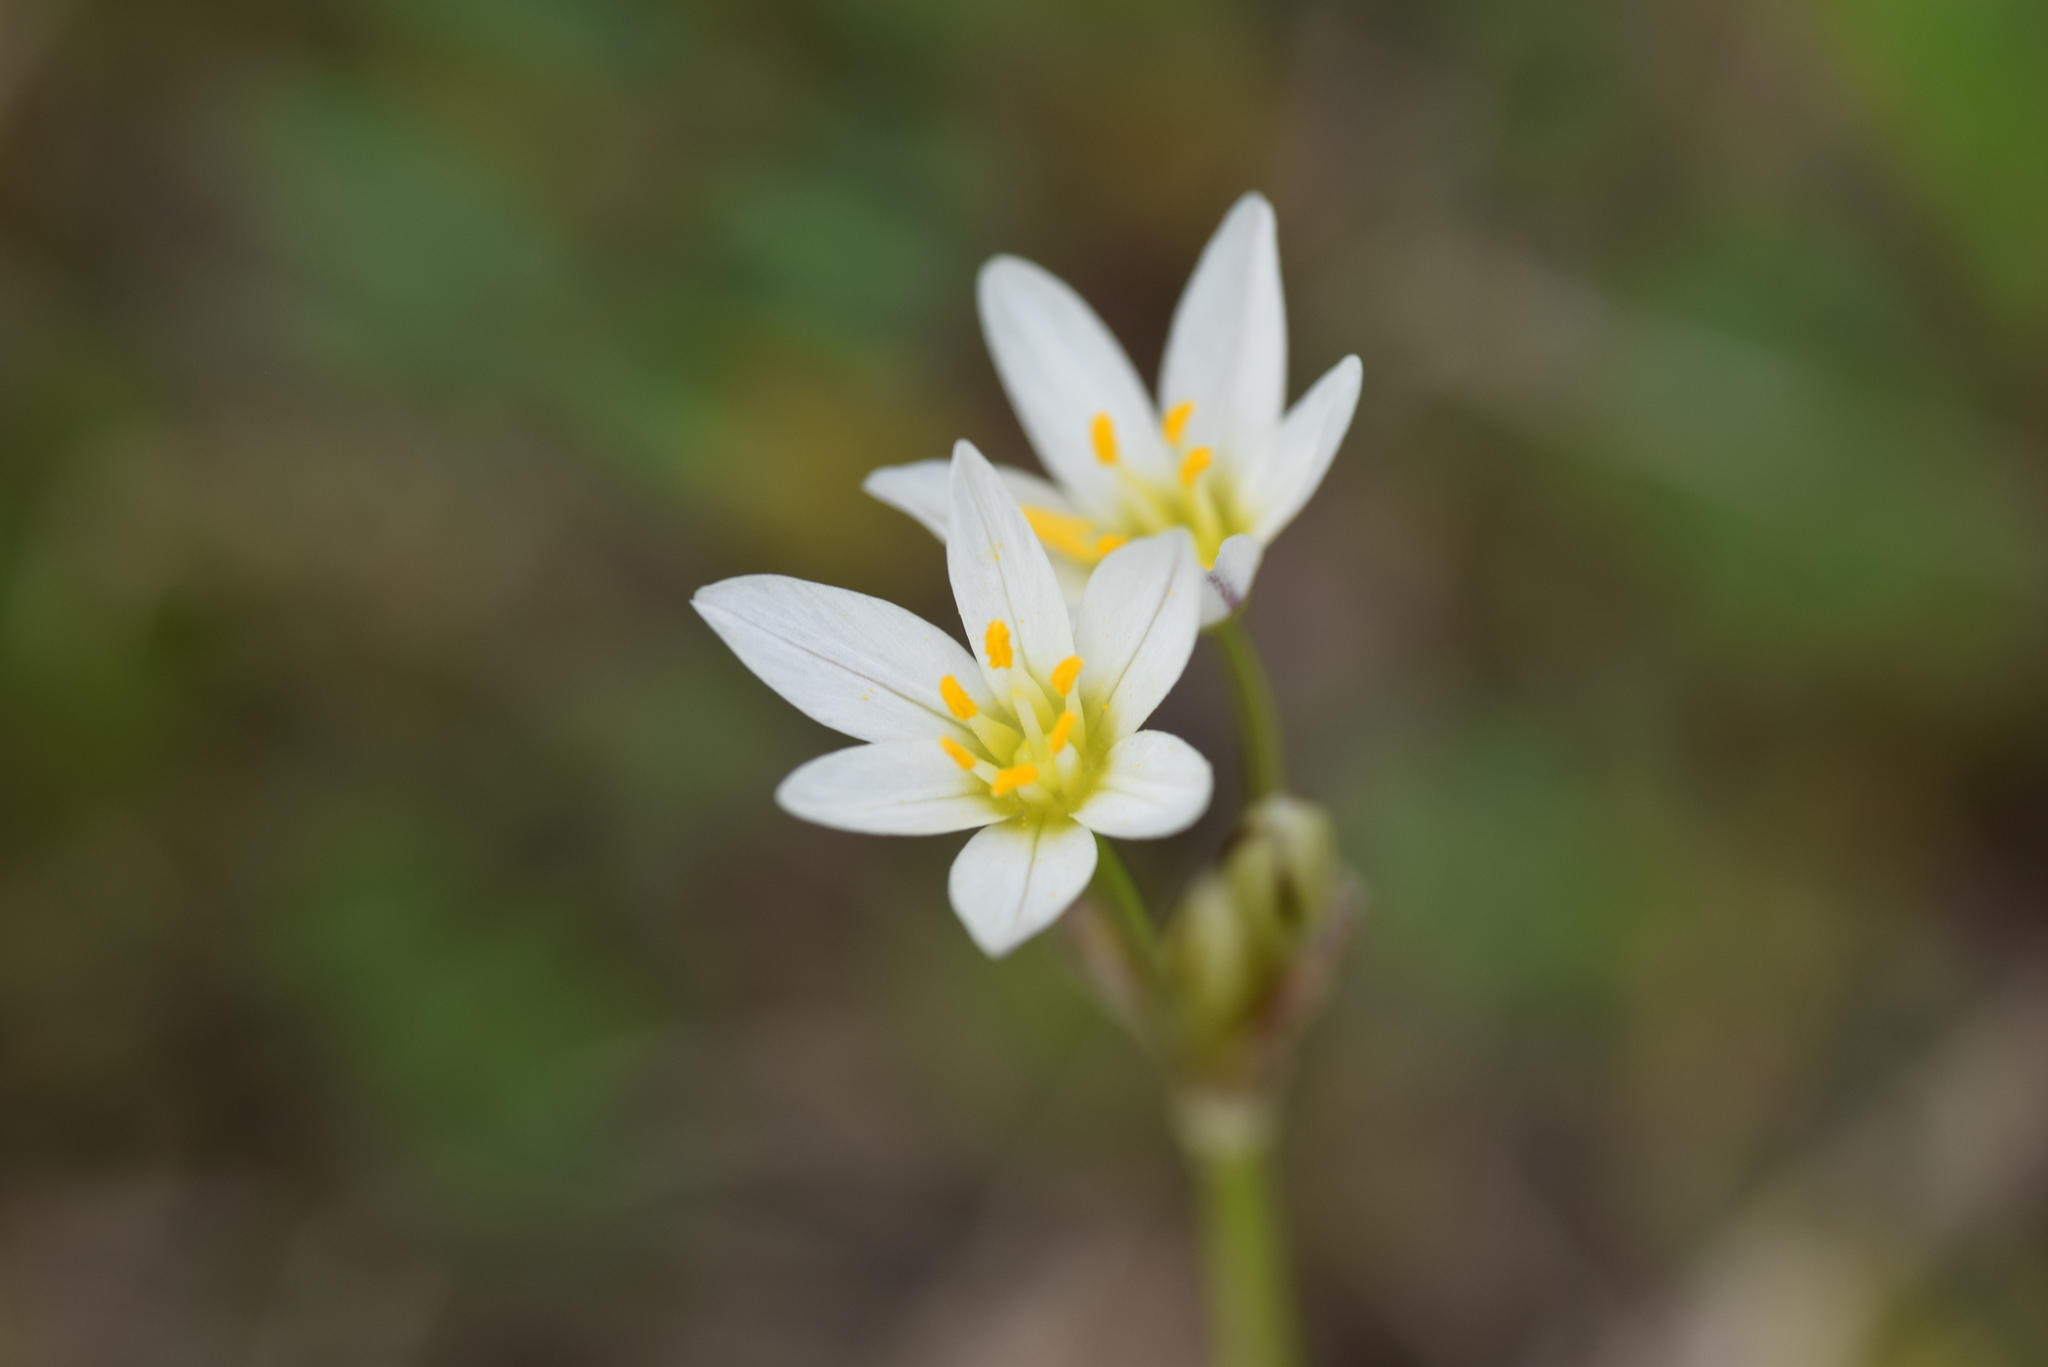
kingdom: Plantae
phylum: Tracheophyta
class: Liliopsida
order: Asparagales
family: Amaryllidaceae
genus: Nothoscordum
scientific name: Nothoscordum bivalve
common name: Crow-poison
